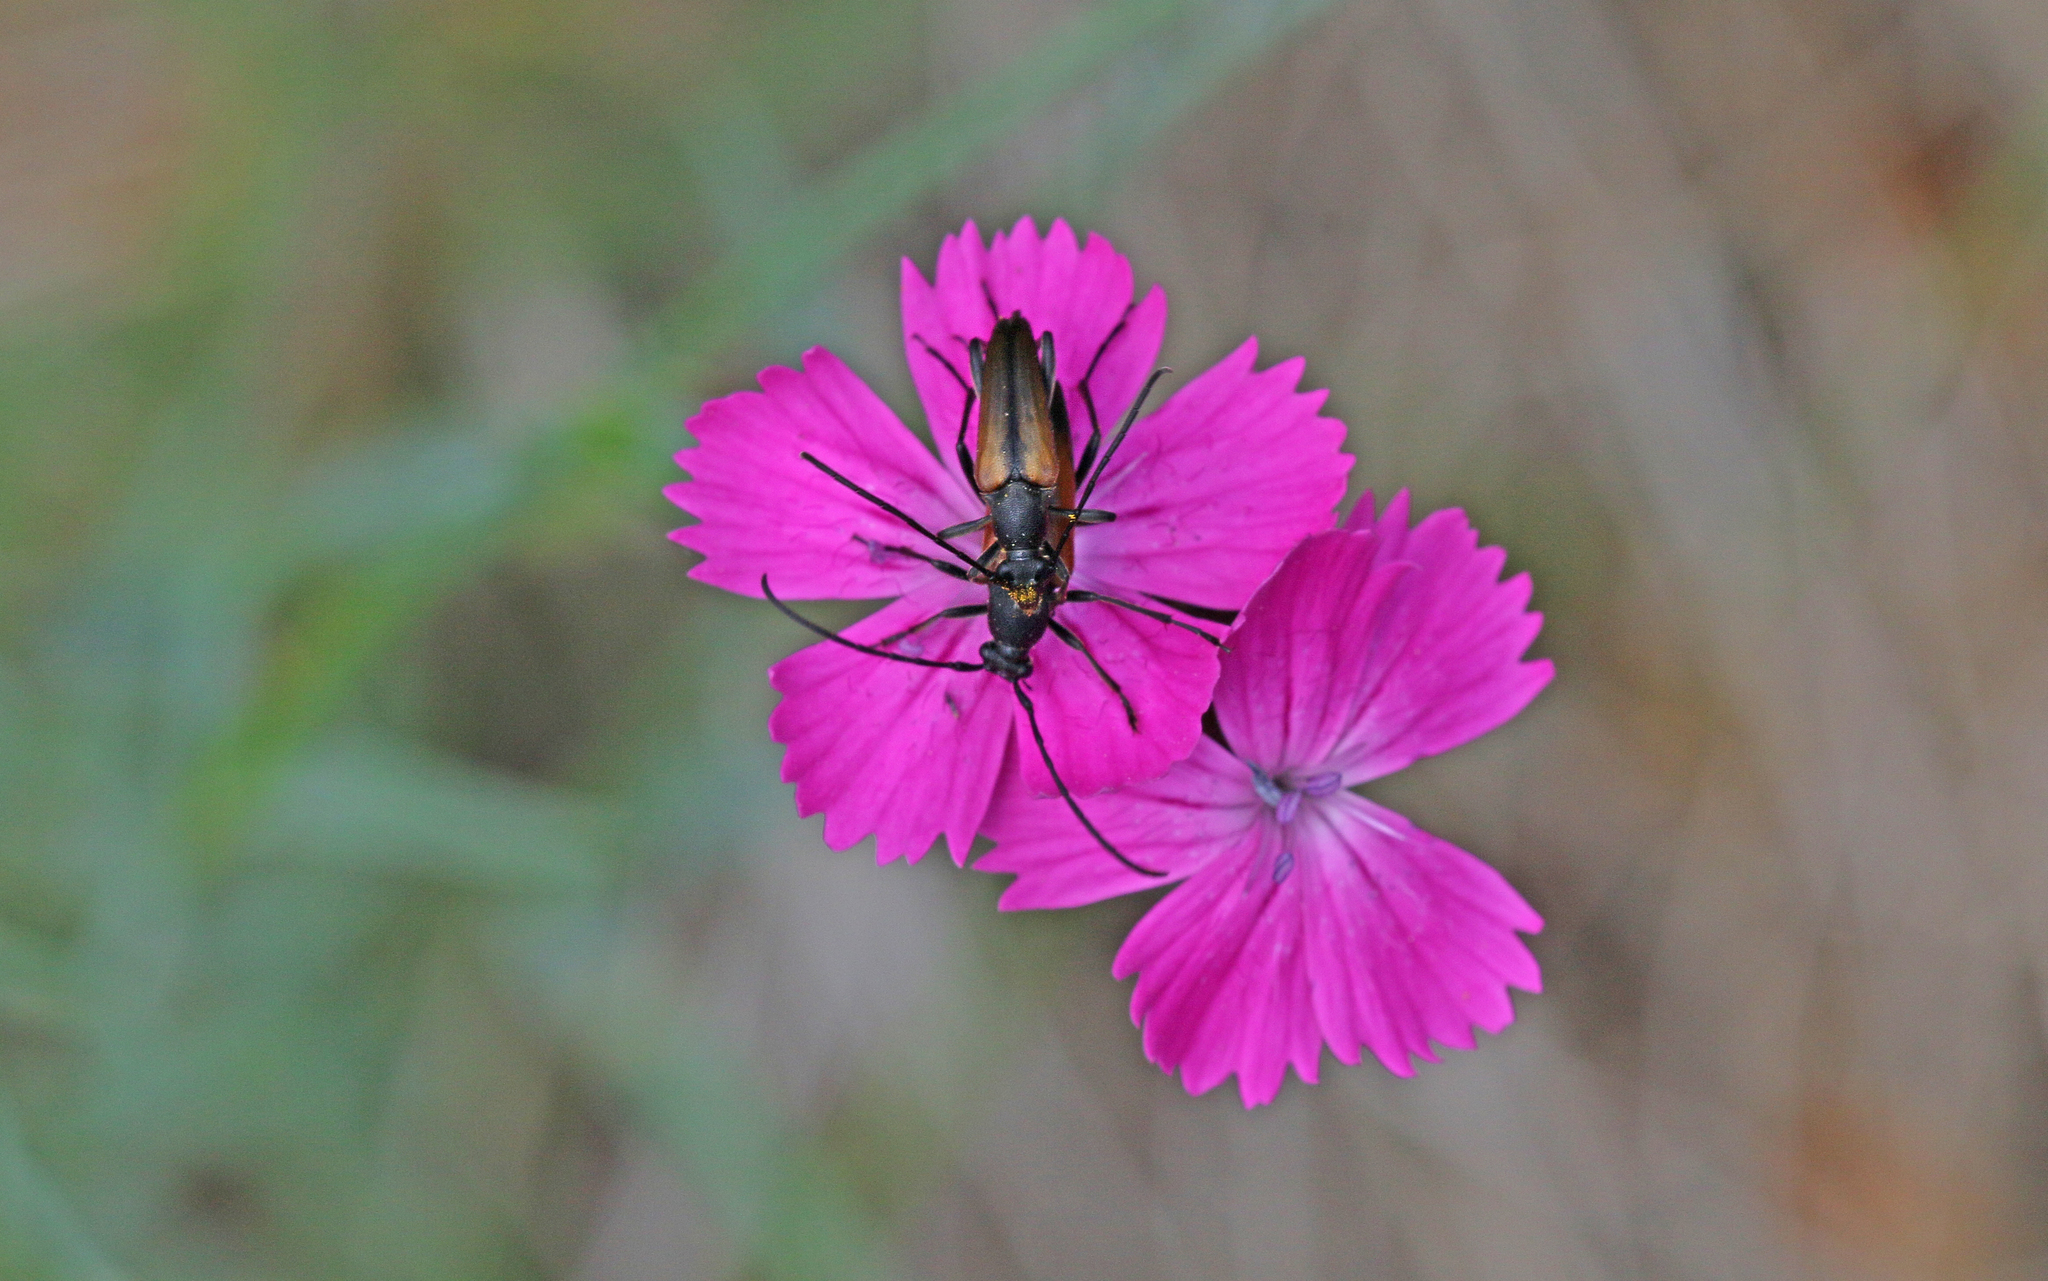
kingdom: Animalia
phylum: Arthropoda
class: Insecta
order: Coleoptera
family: Cerambycidae
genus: Stenurella
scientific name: Stenurella melanura
